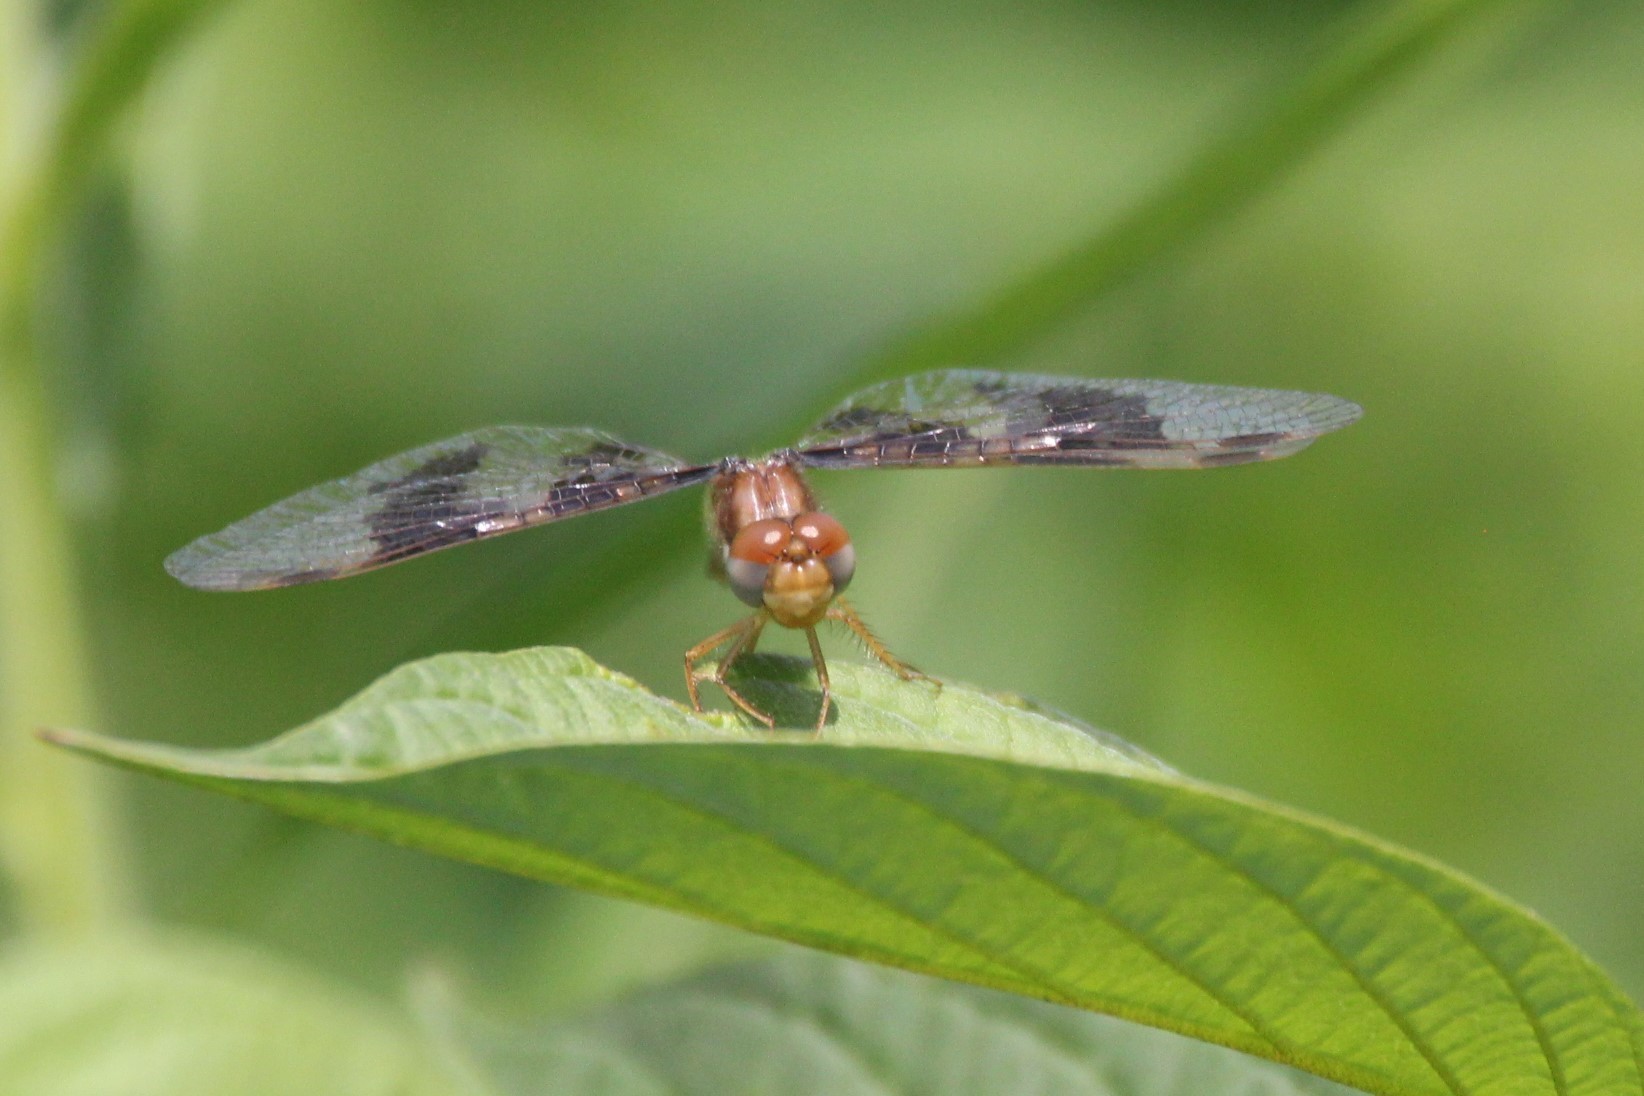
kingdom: Animalia
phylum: Arthropoda
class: Insecta
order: Odonata
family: Libellulidae
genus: Perithemis
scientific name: Perithemis tenera
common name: Eastern amberwing
